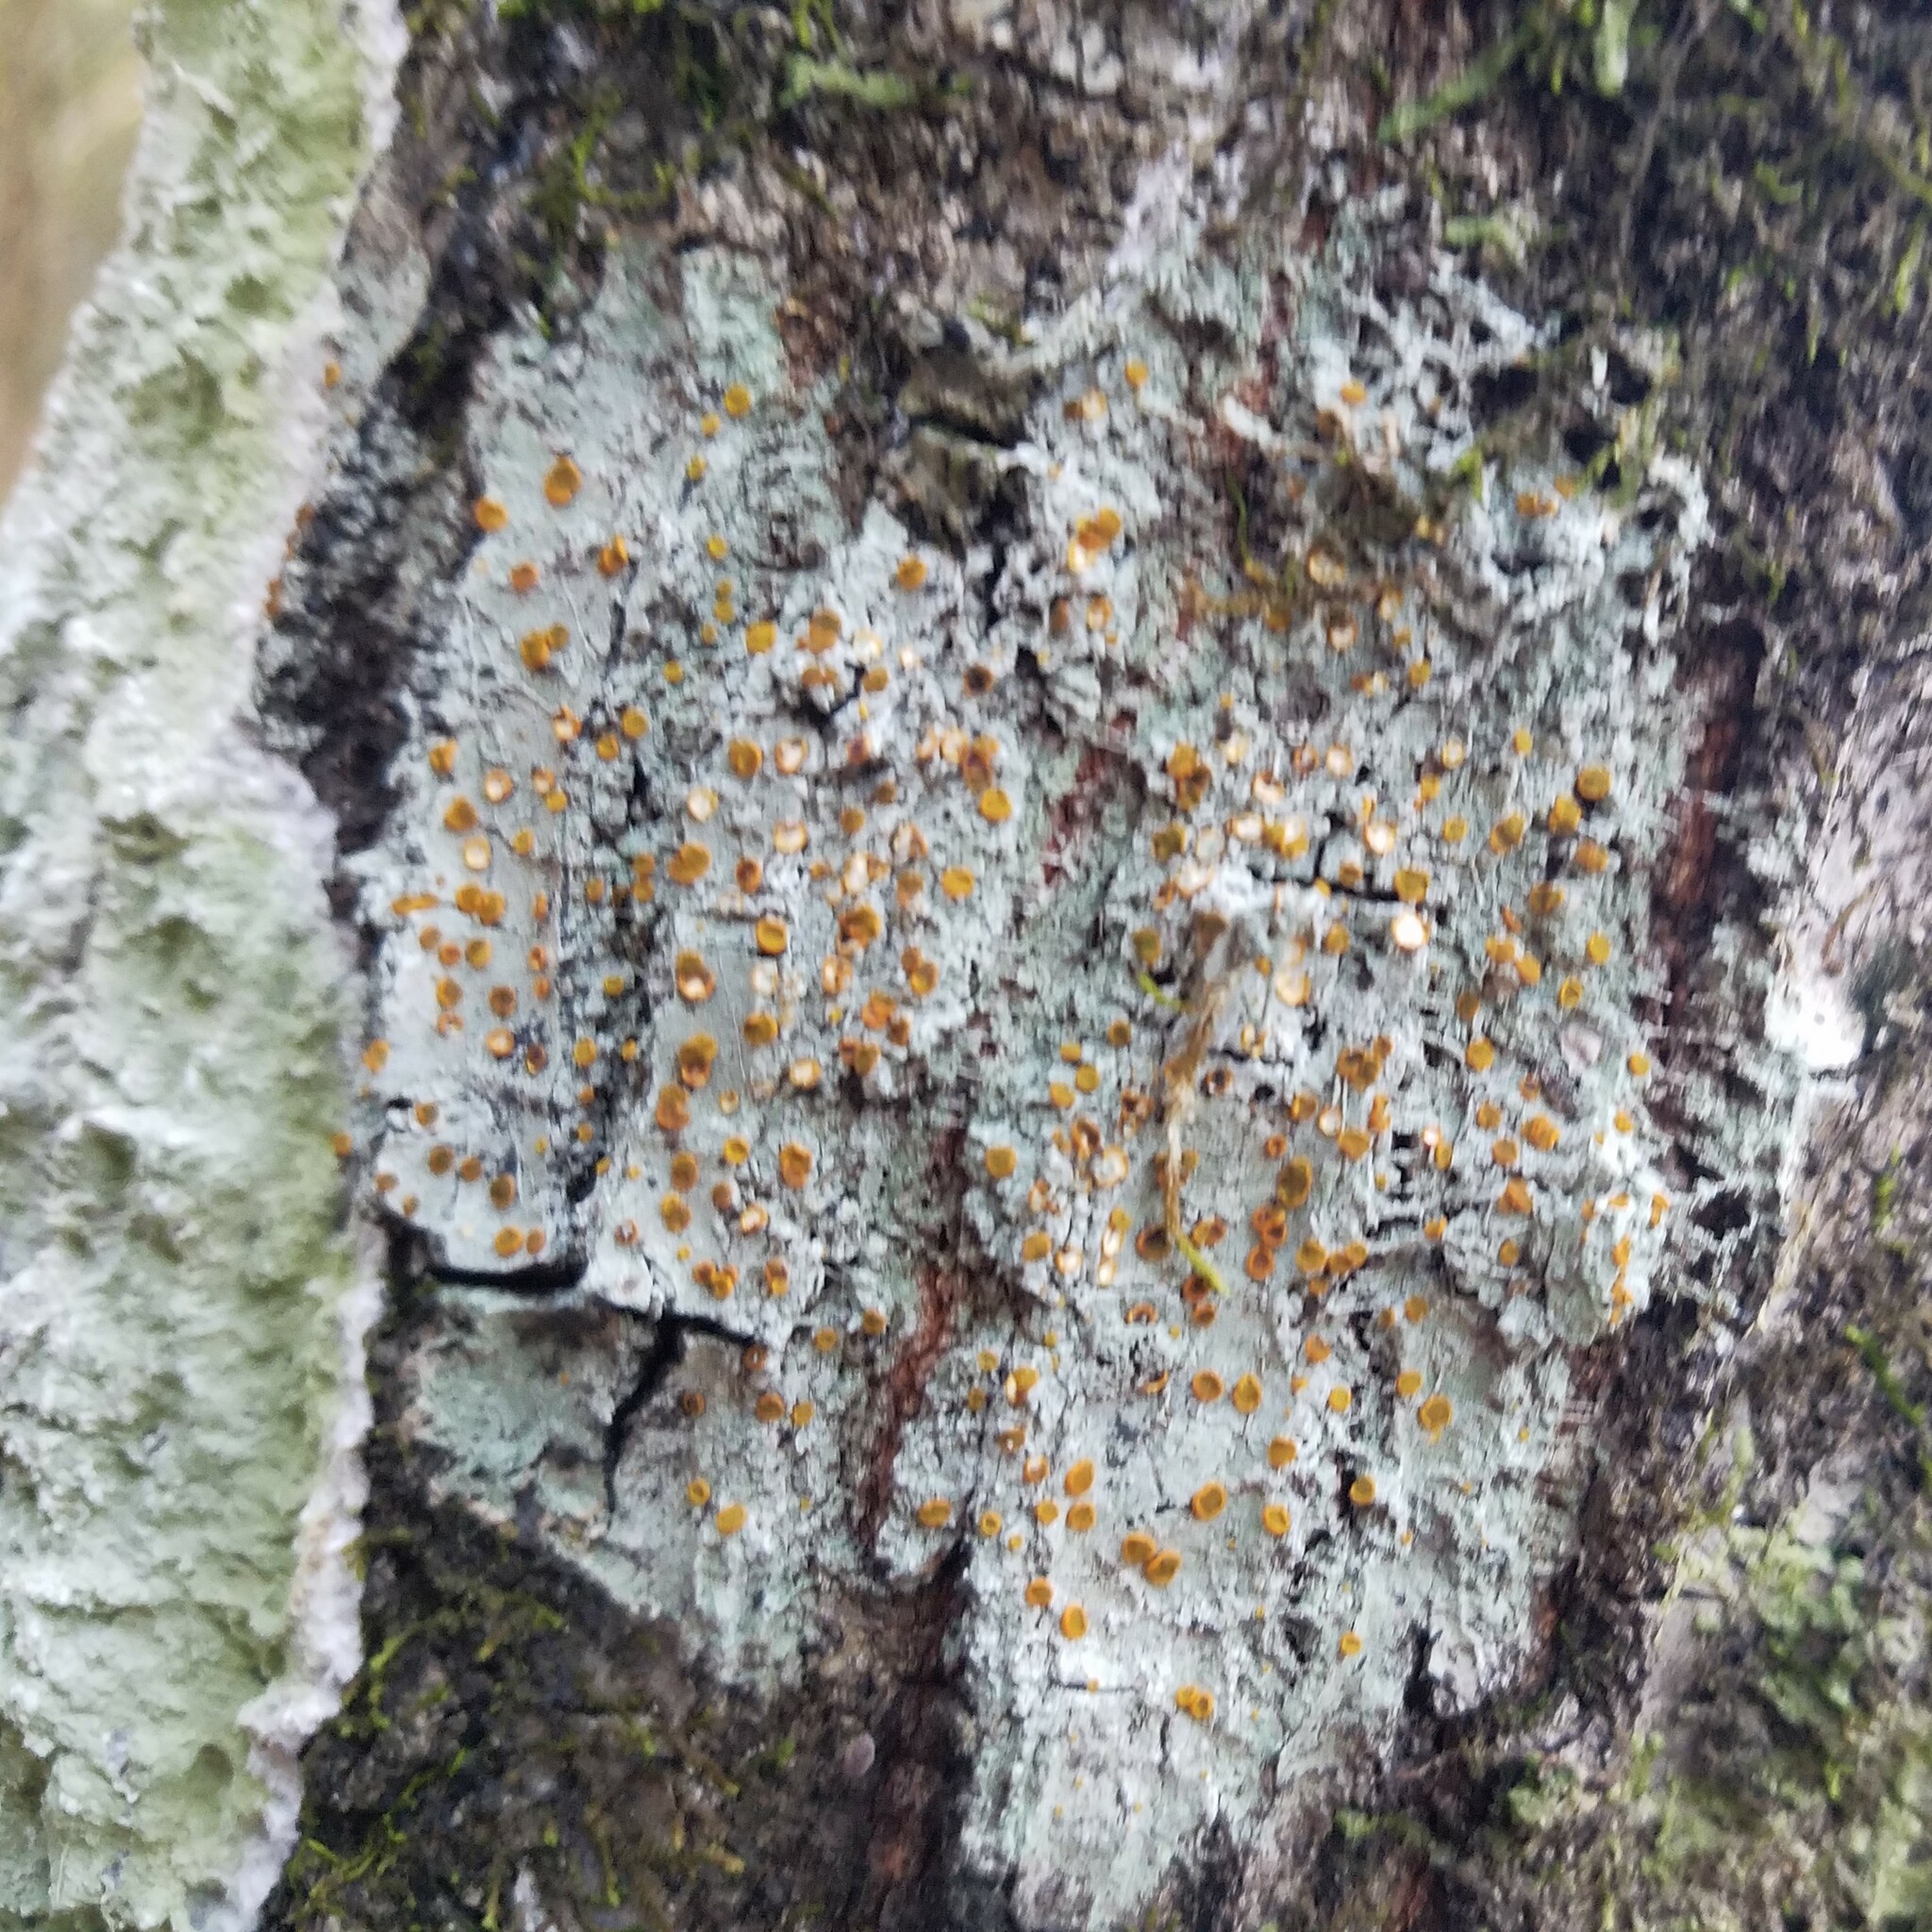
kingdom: Fungi
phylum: Ascomycota
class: Lecanoromycetes
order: Teloschistales
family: Brigantiaeaceae
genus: Brigantiaea
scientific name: Brigantiaea leucoxantha
